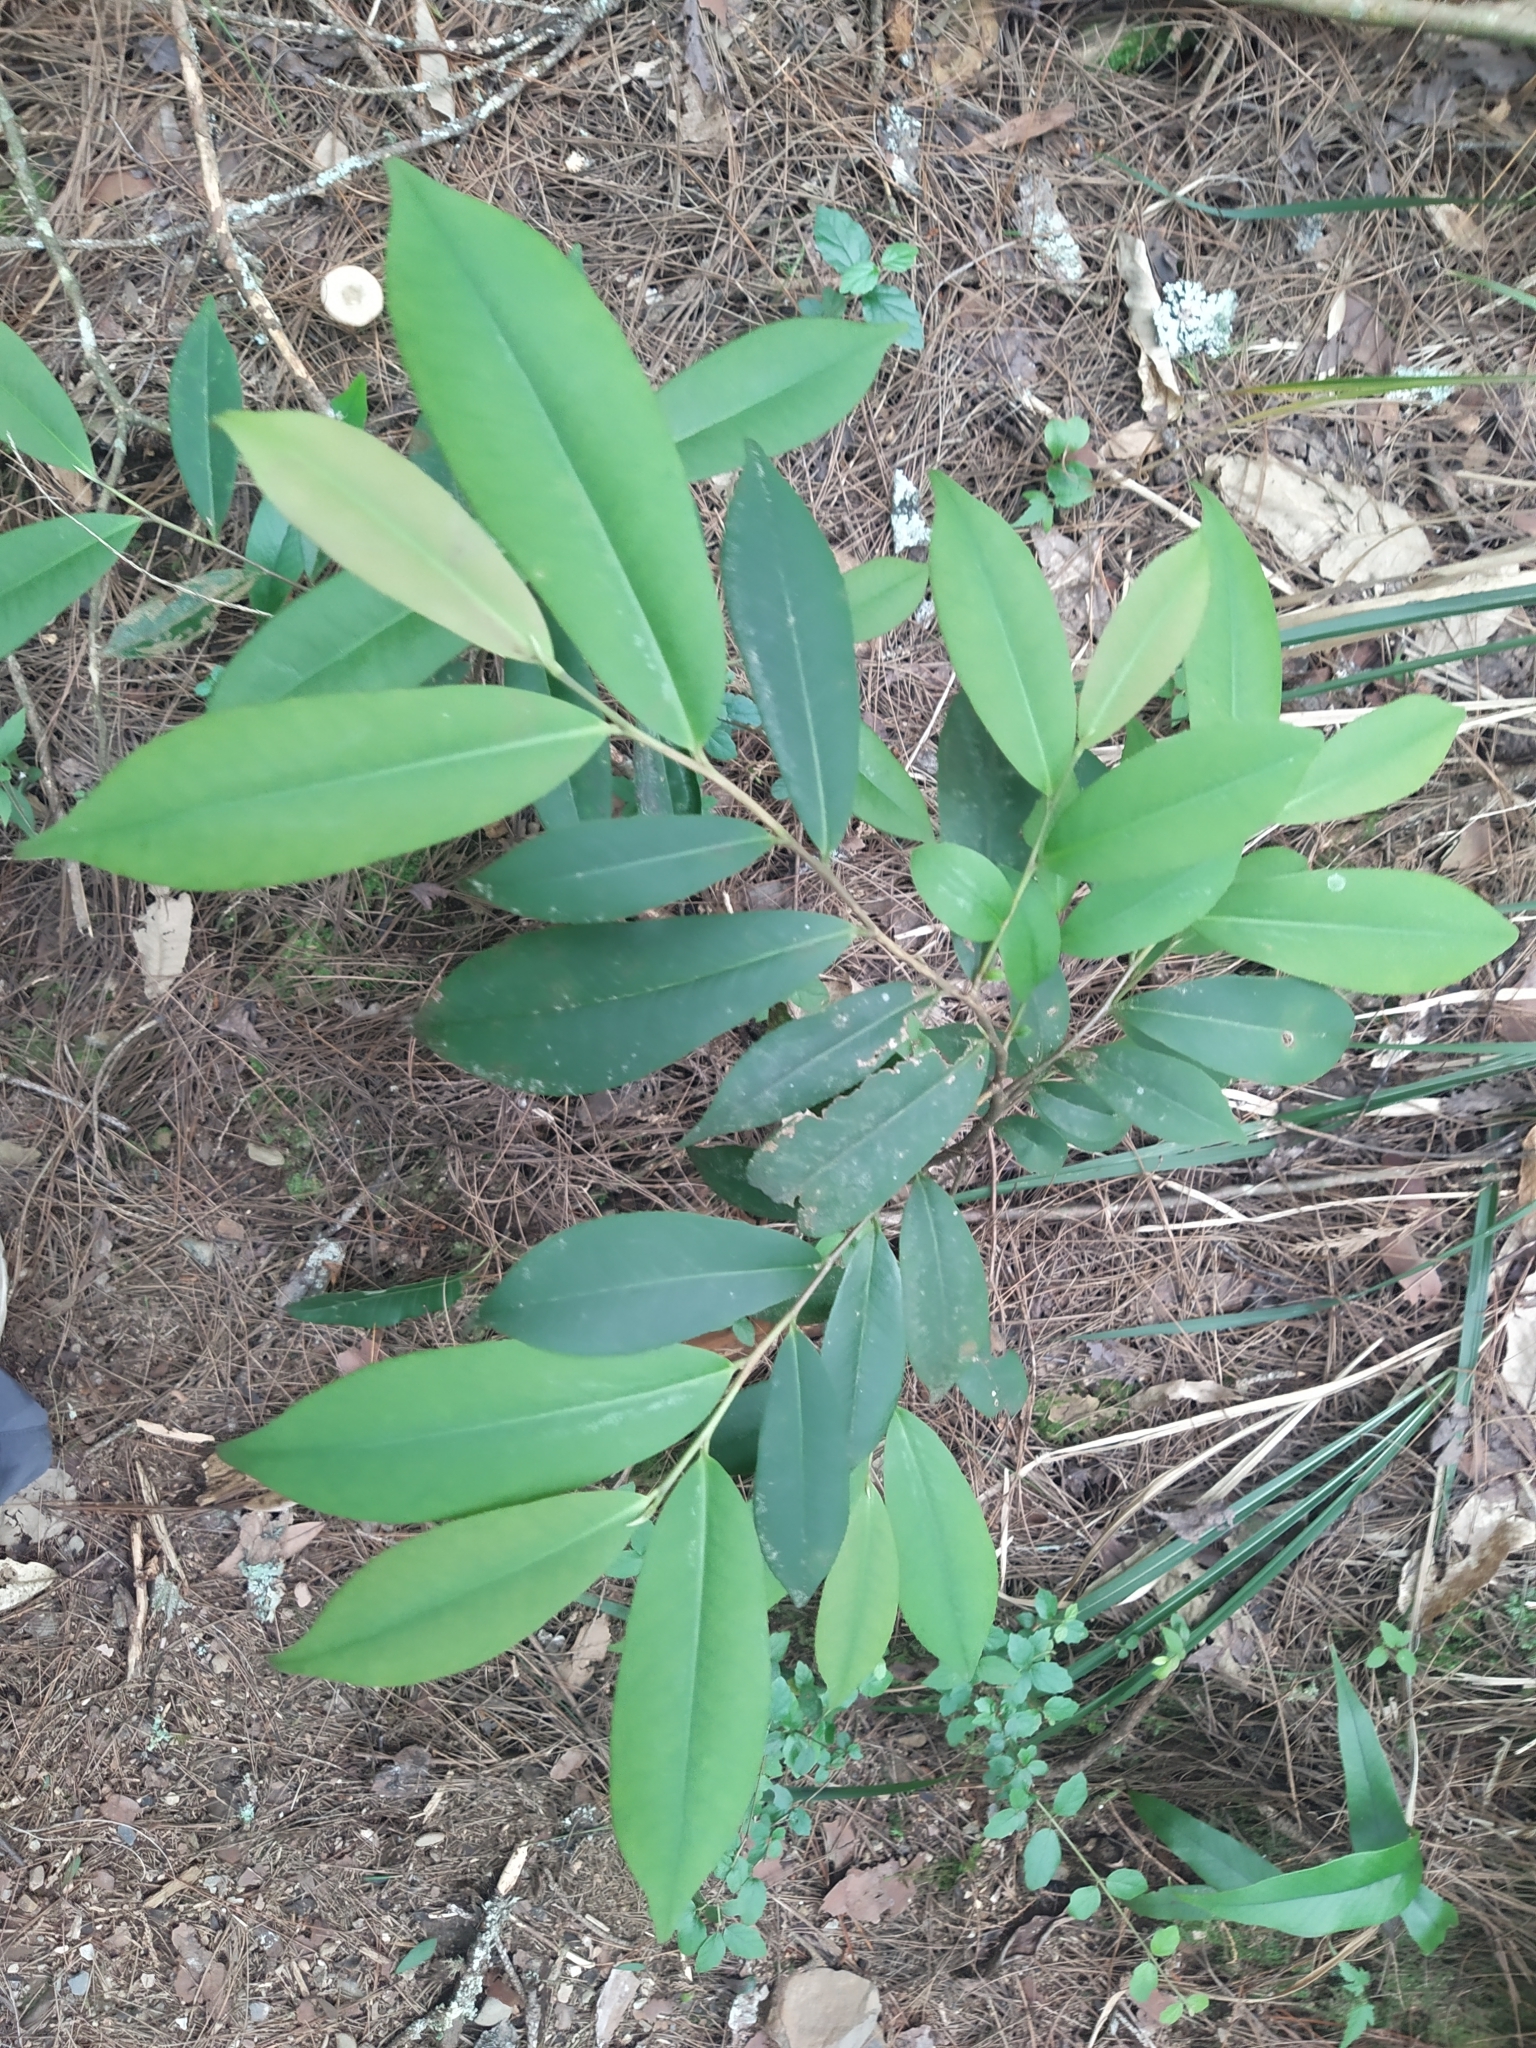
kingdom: Plantae
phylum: Tracheophyta
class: Magnoliopsida
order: Ericales
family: Pentaphylacaceae
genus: Adinandra
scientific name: Adinandra formosana
